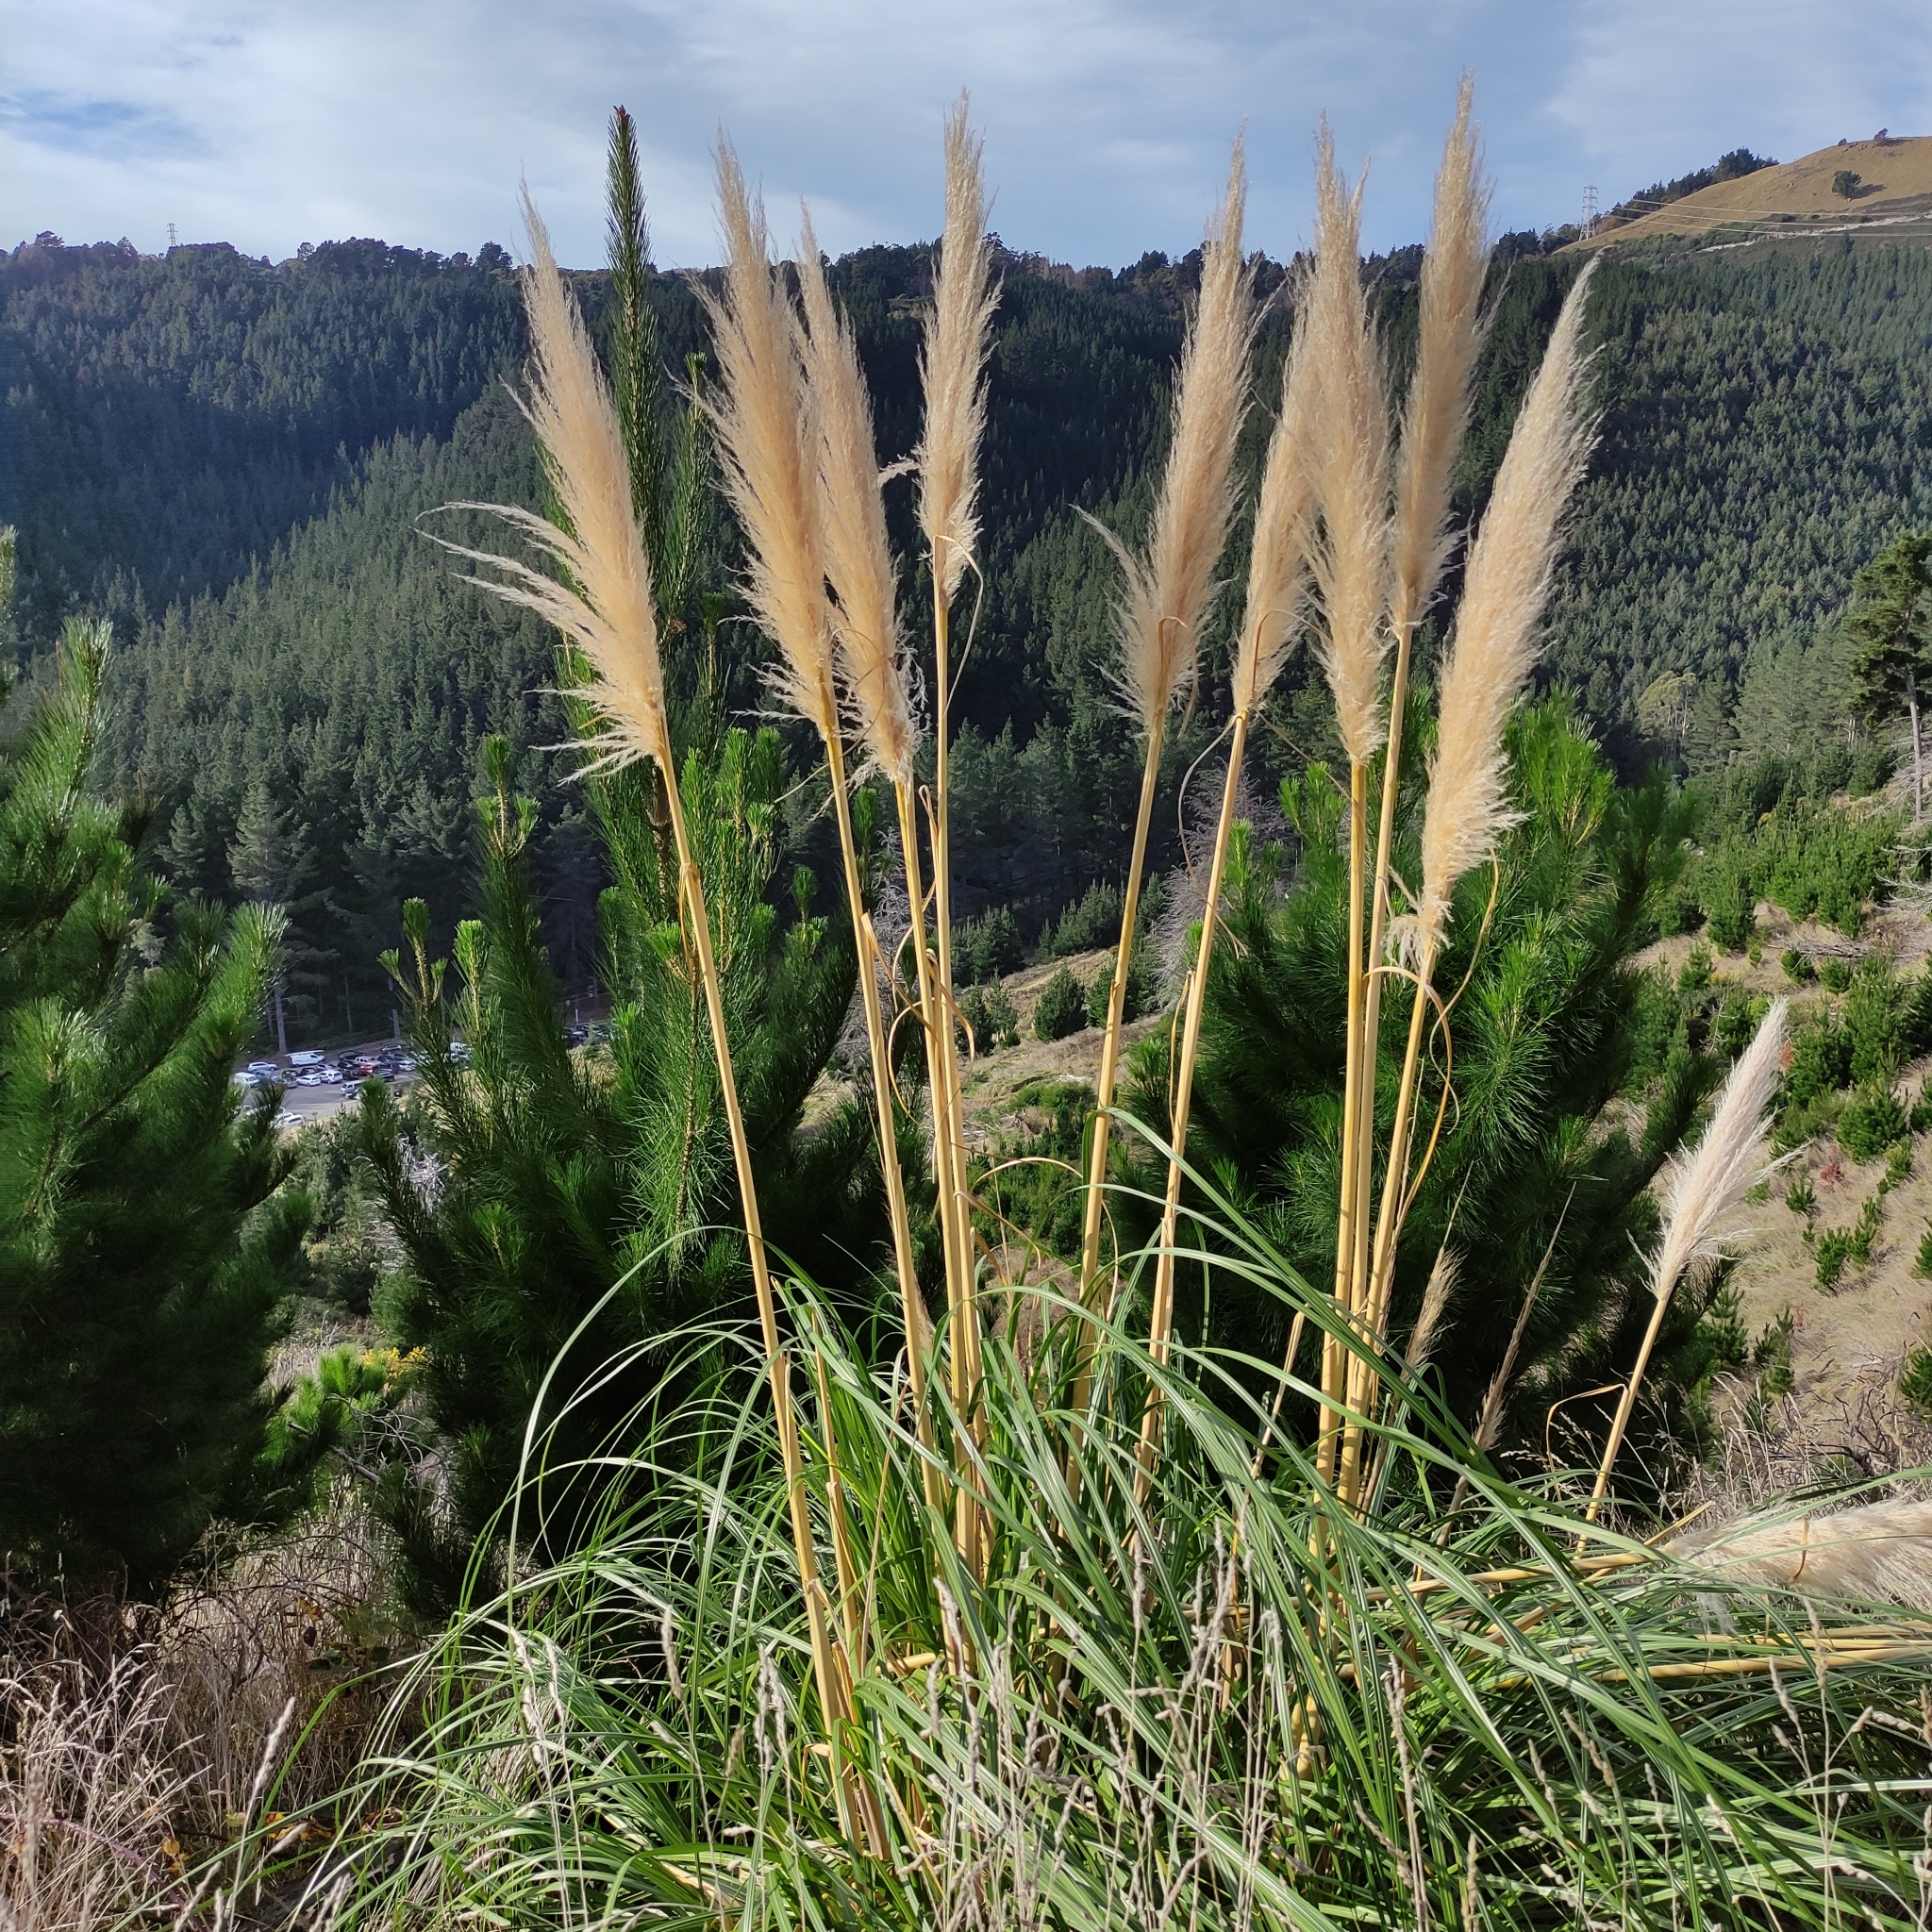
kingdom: Plantae
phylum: Tracheophyta
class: Liliopsida
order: Poales
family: Poaceae
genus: Cortaderia
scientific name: Cortaderia selloana
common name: Uruguayan pampas grass
